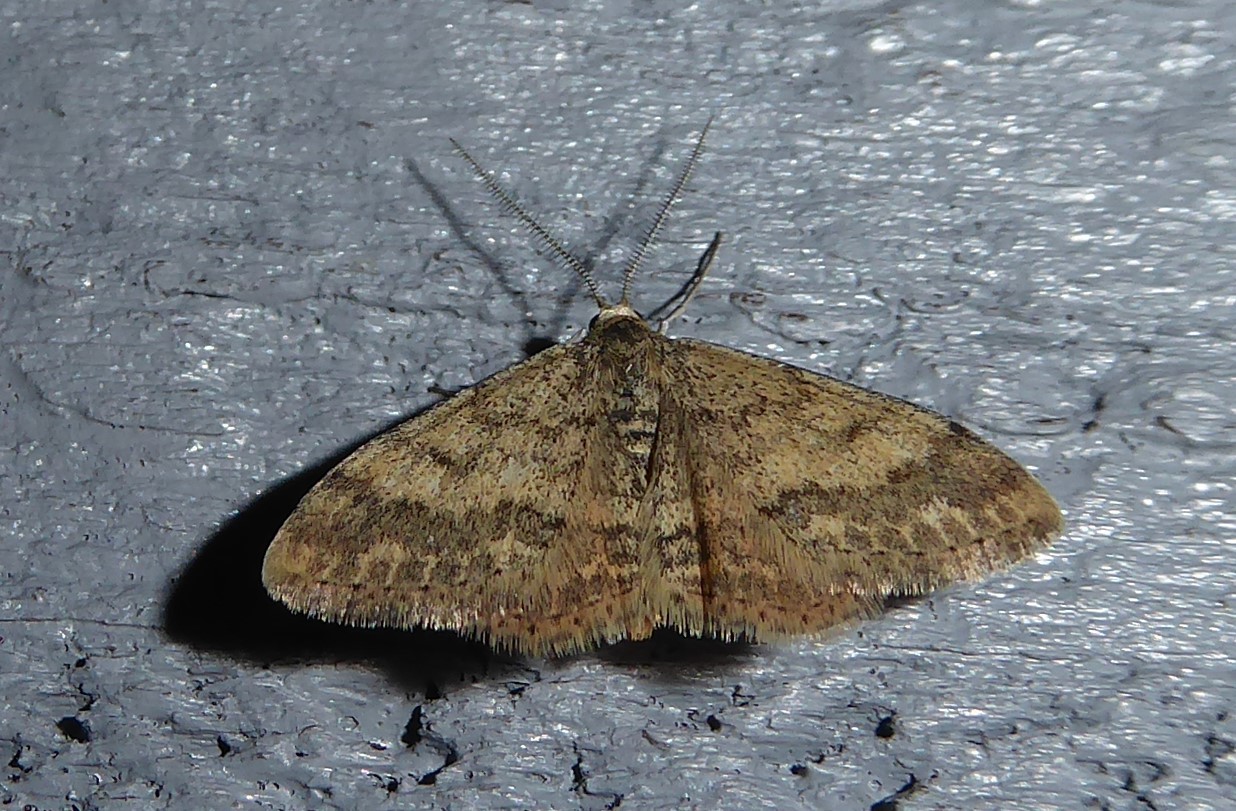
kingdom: Animalia
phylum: Arthropoda
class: Insecta
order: Lepidoptera
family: Geometridae
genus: Scopula
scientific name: Scopula rubraria
